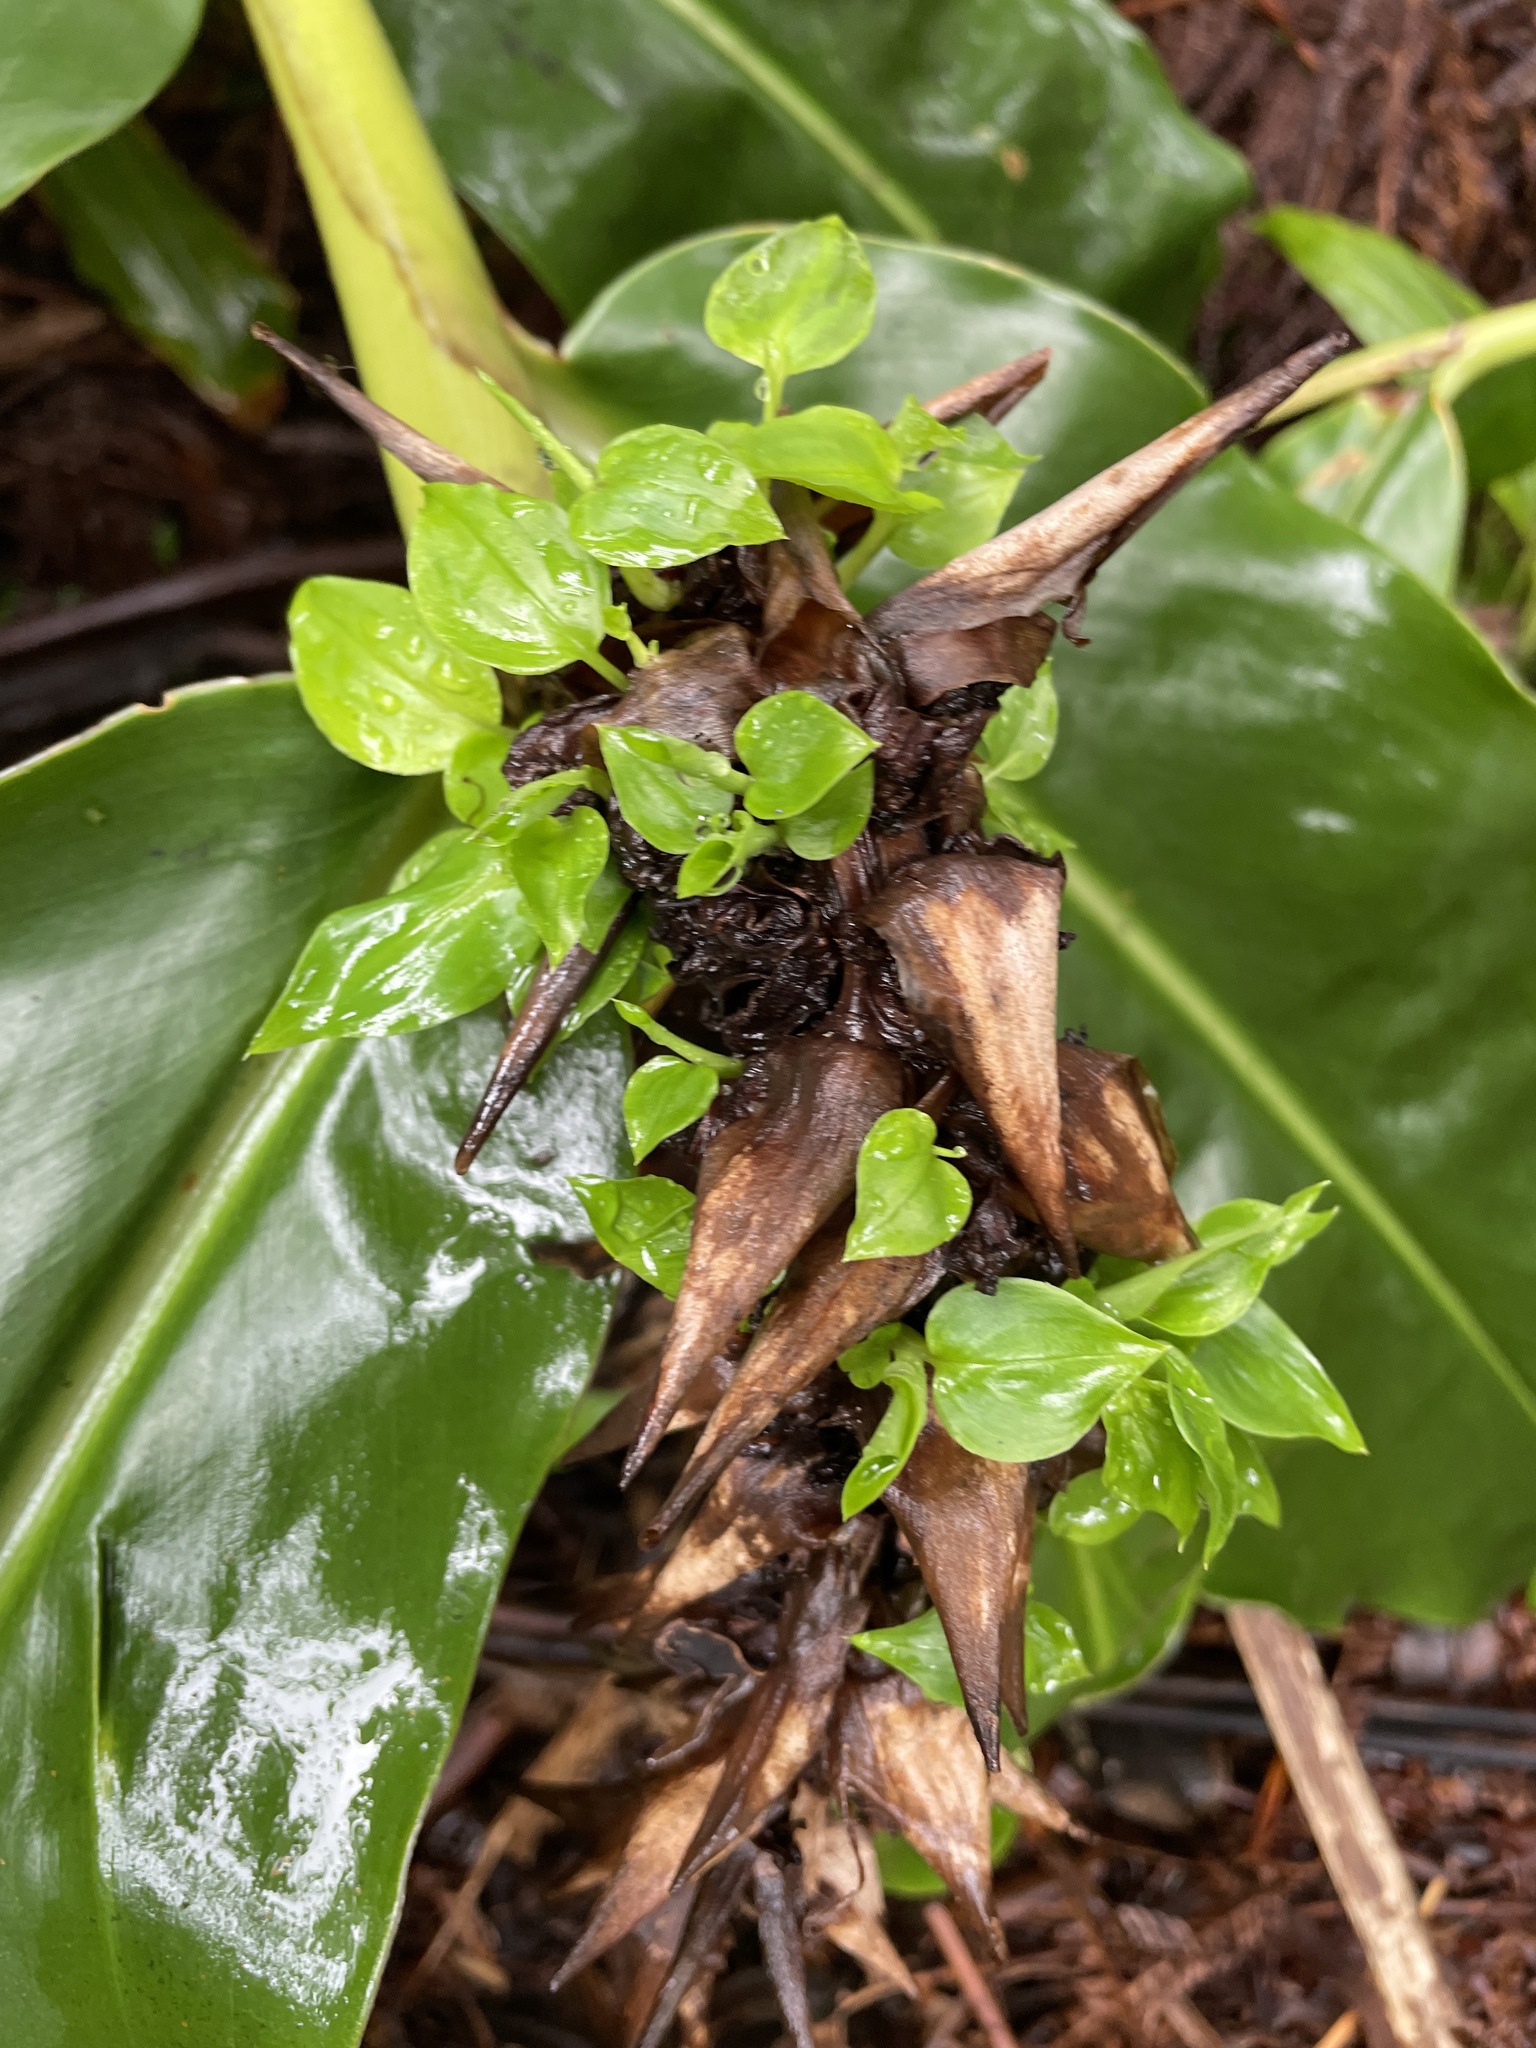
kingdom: Plantae
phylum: Tracheophyta
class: Liliopsida
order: Zingiberales
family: Zingiberaceae
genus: Hedychium
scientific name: Hedychium gardnerianum
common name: Himalayan ginger
